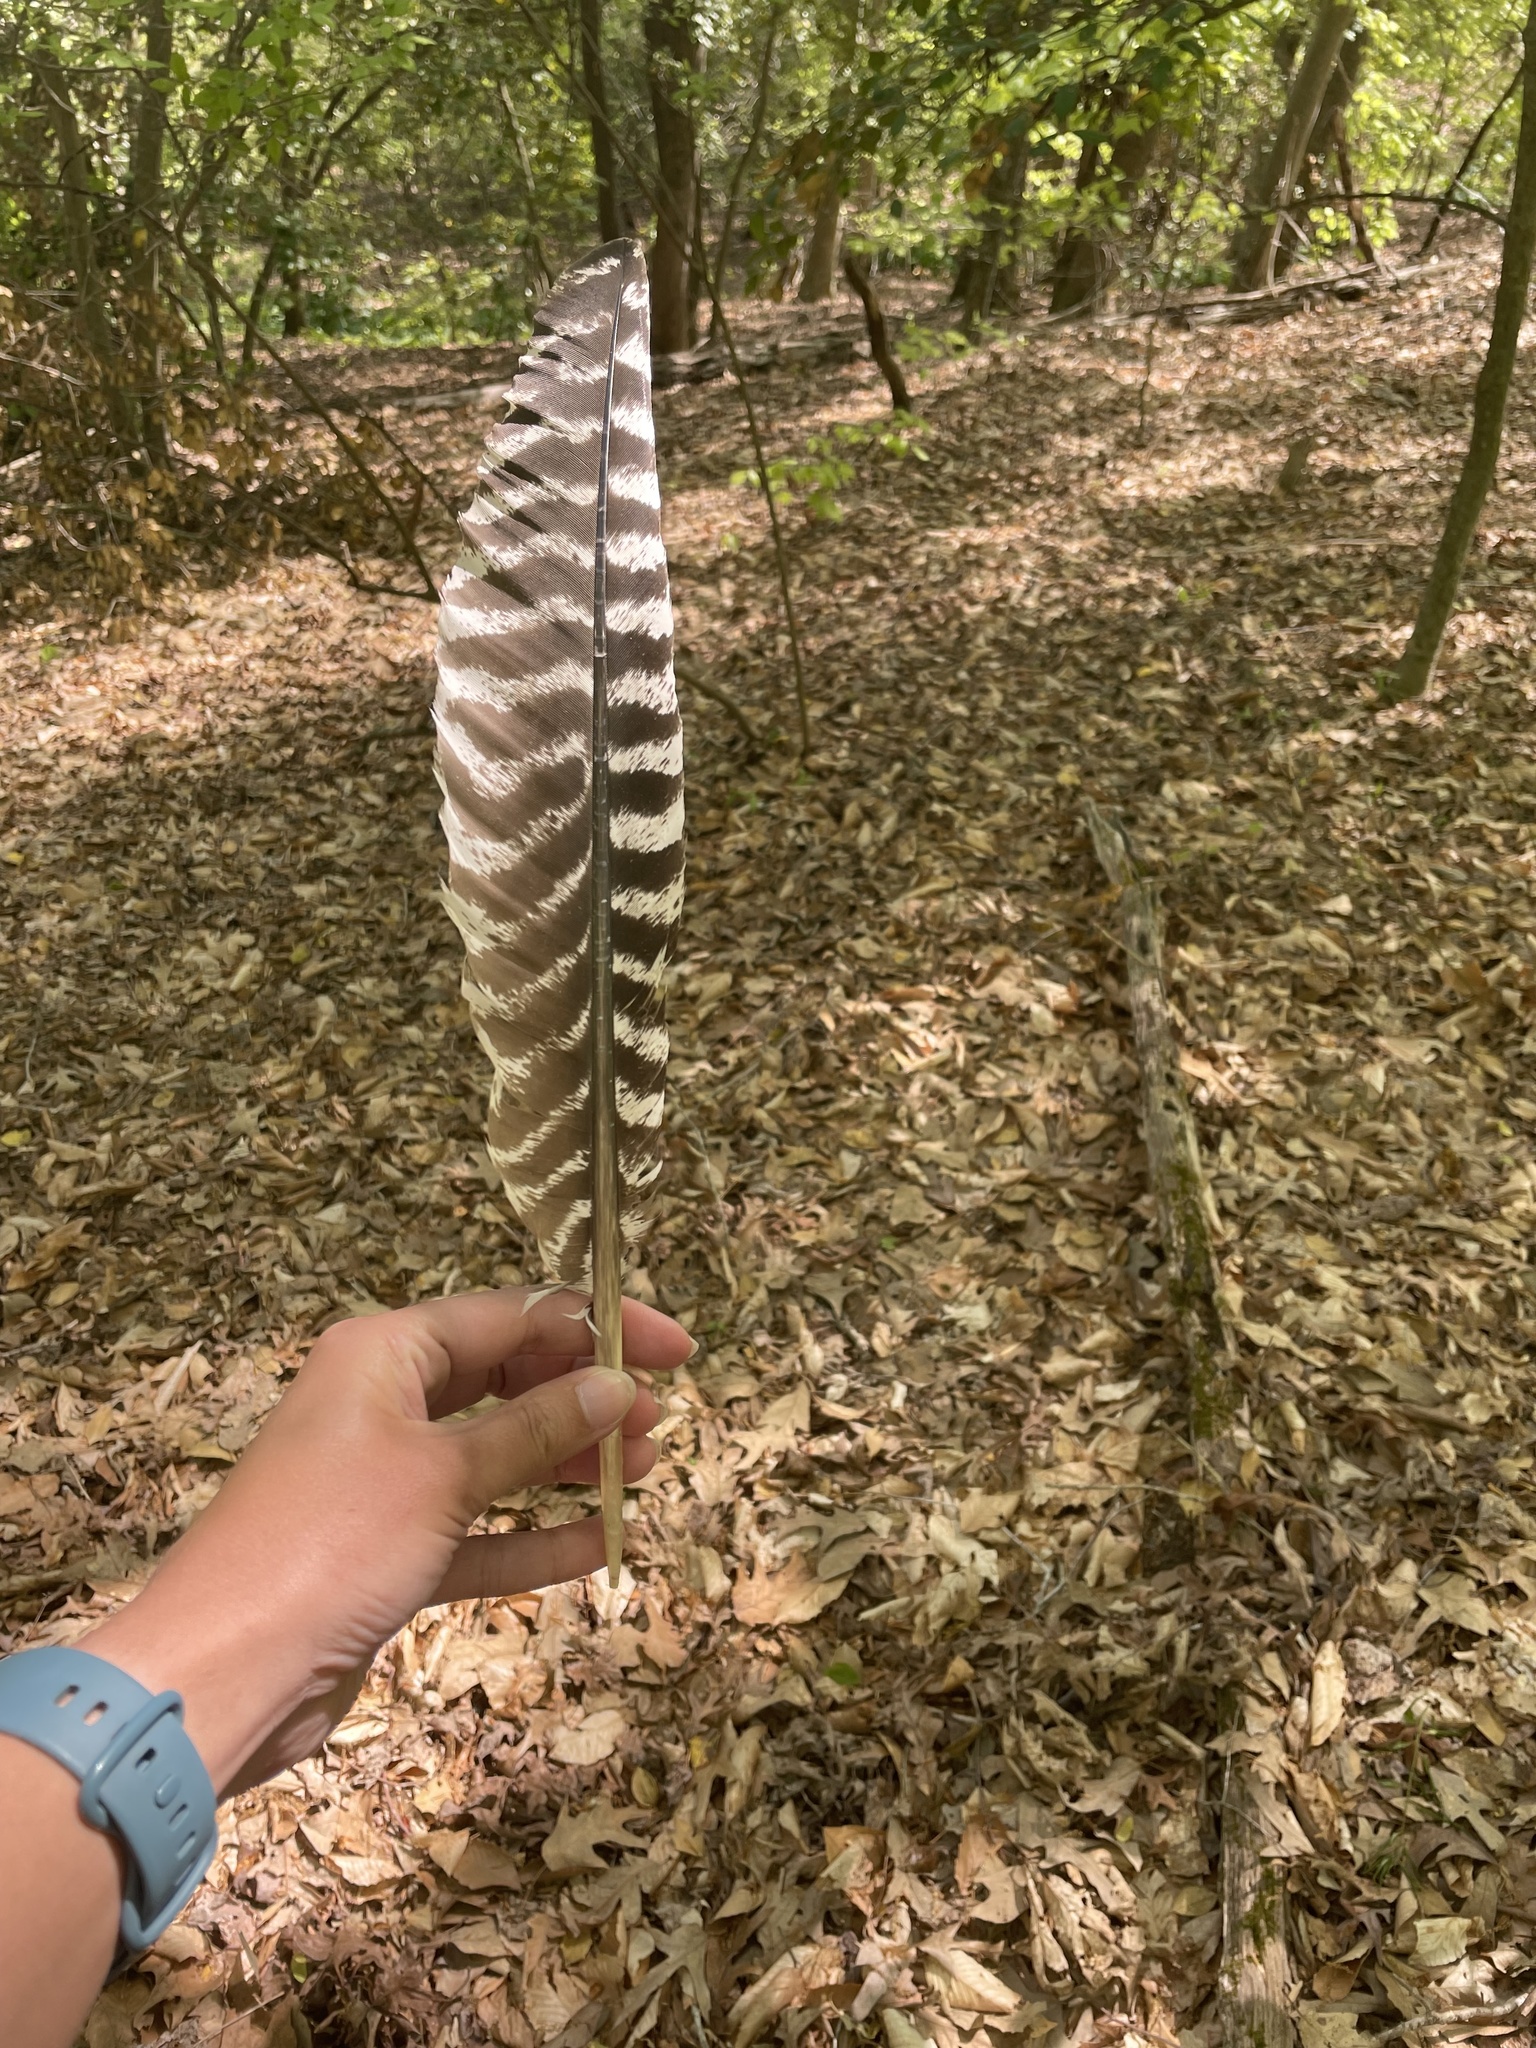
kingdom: Animalia
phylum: Chordata
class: Aves
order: Galliformes
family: Phasianidae
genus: Meleagris
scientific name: Meleagris gallopavo
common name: Wild turkey
